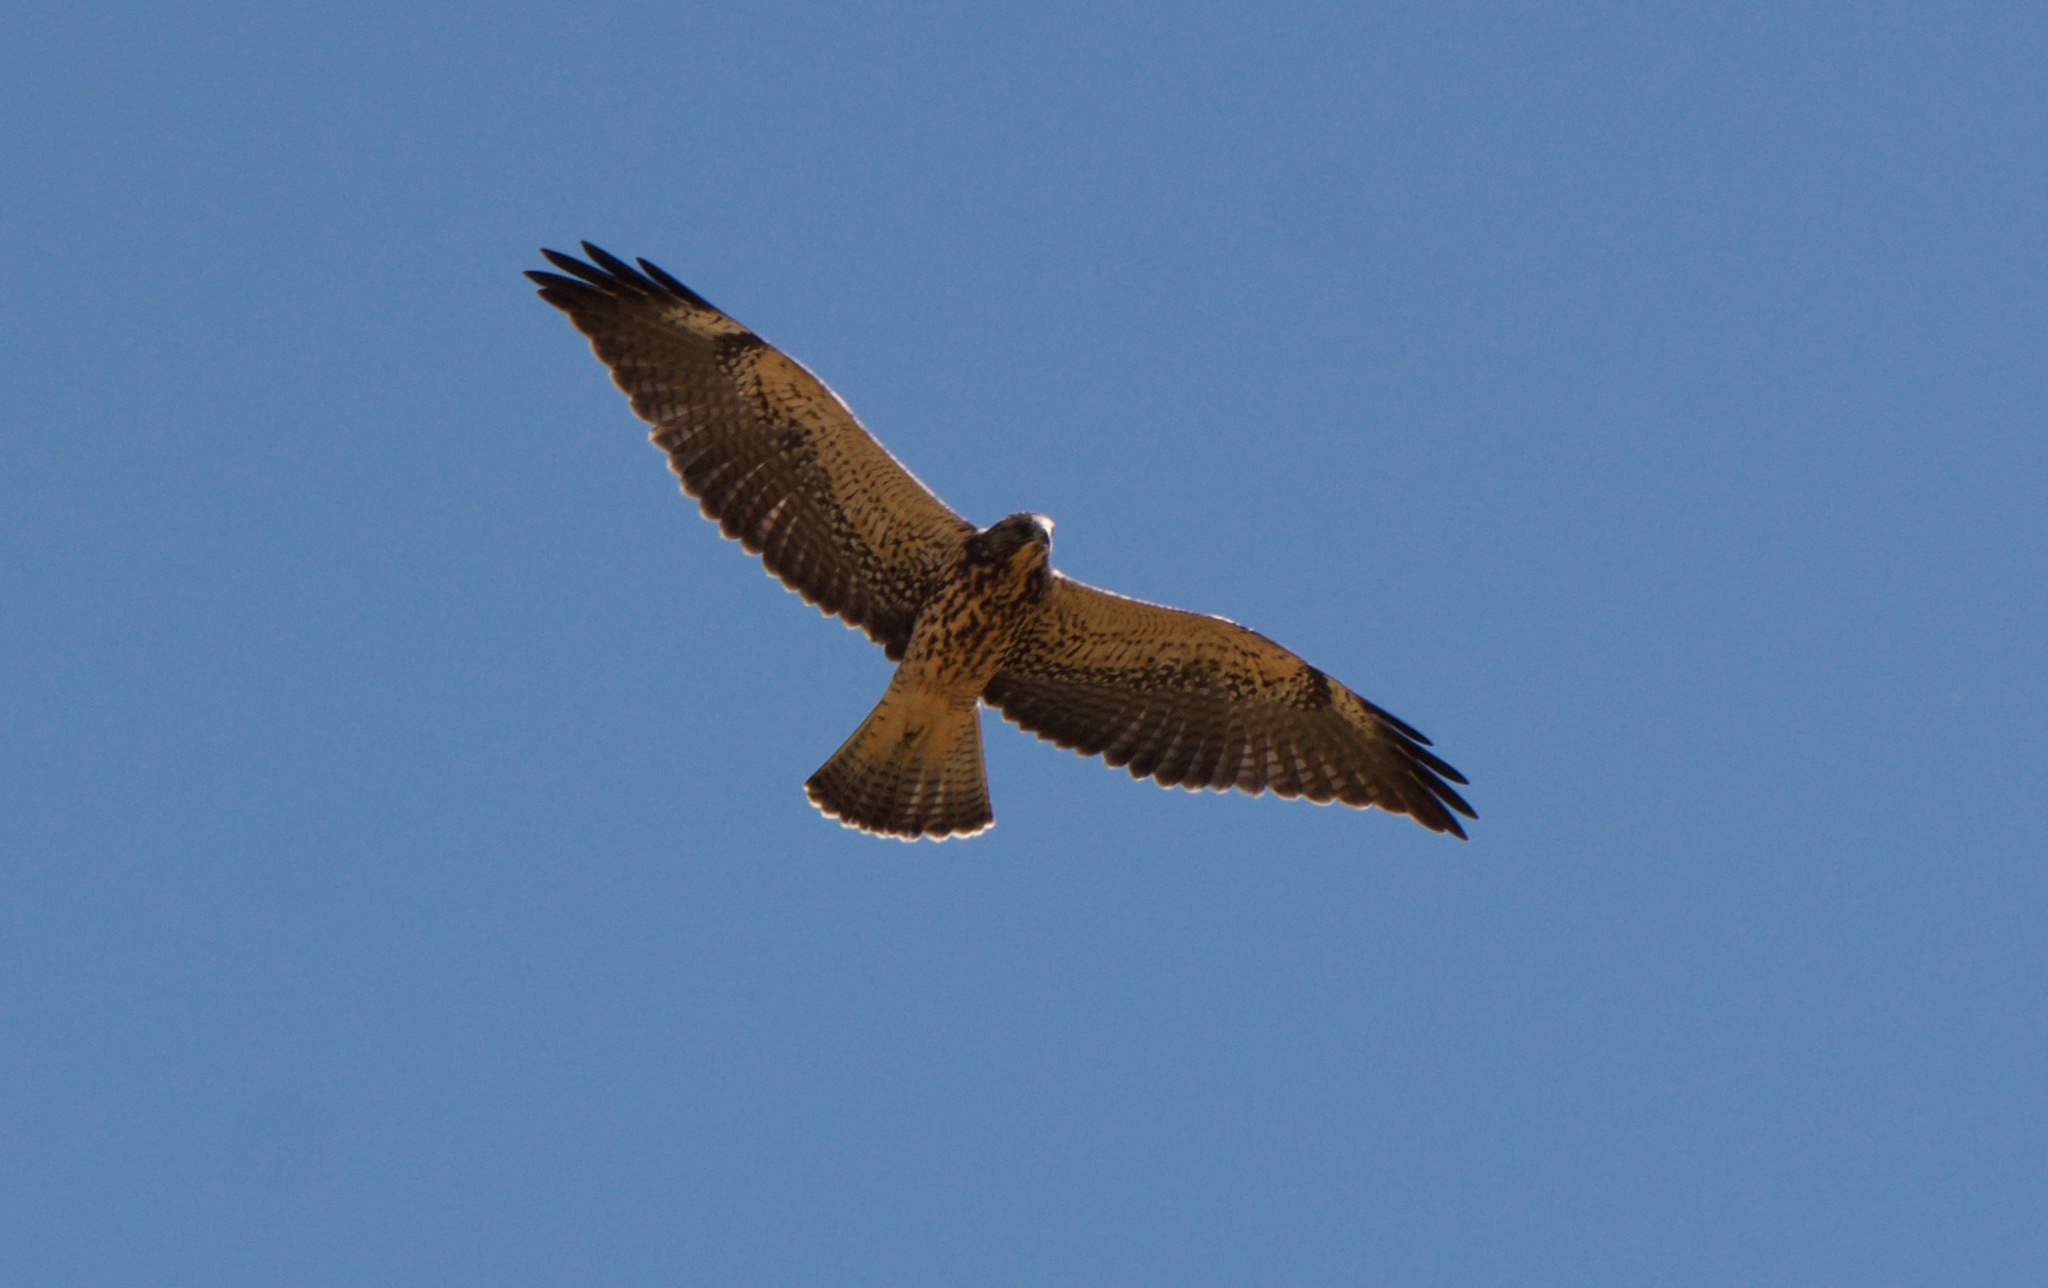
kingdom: Animalia
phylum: Chordata
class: Aves
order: Accipitriformes
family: Accipitridae
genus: Buteo
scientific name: Buteo swainsoni
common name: Swainson's hawk
